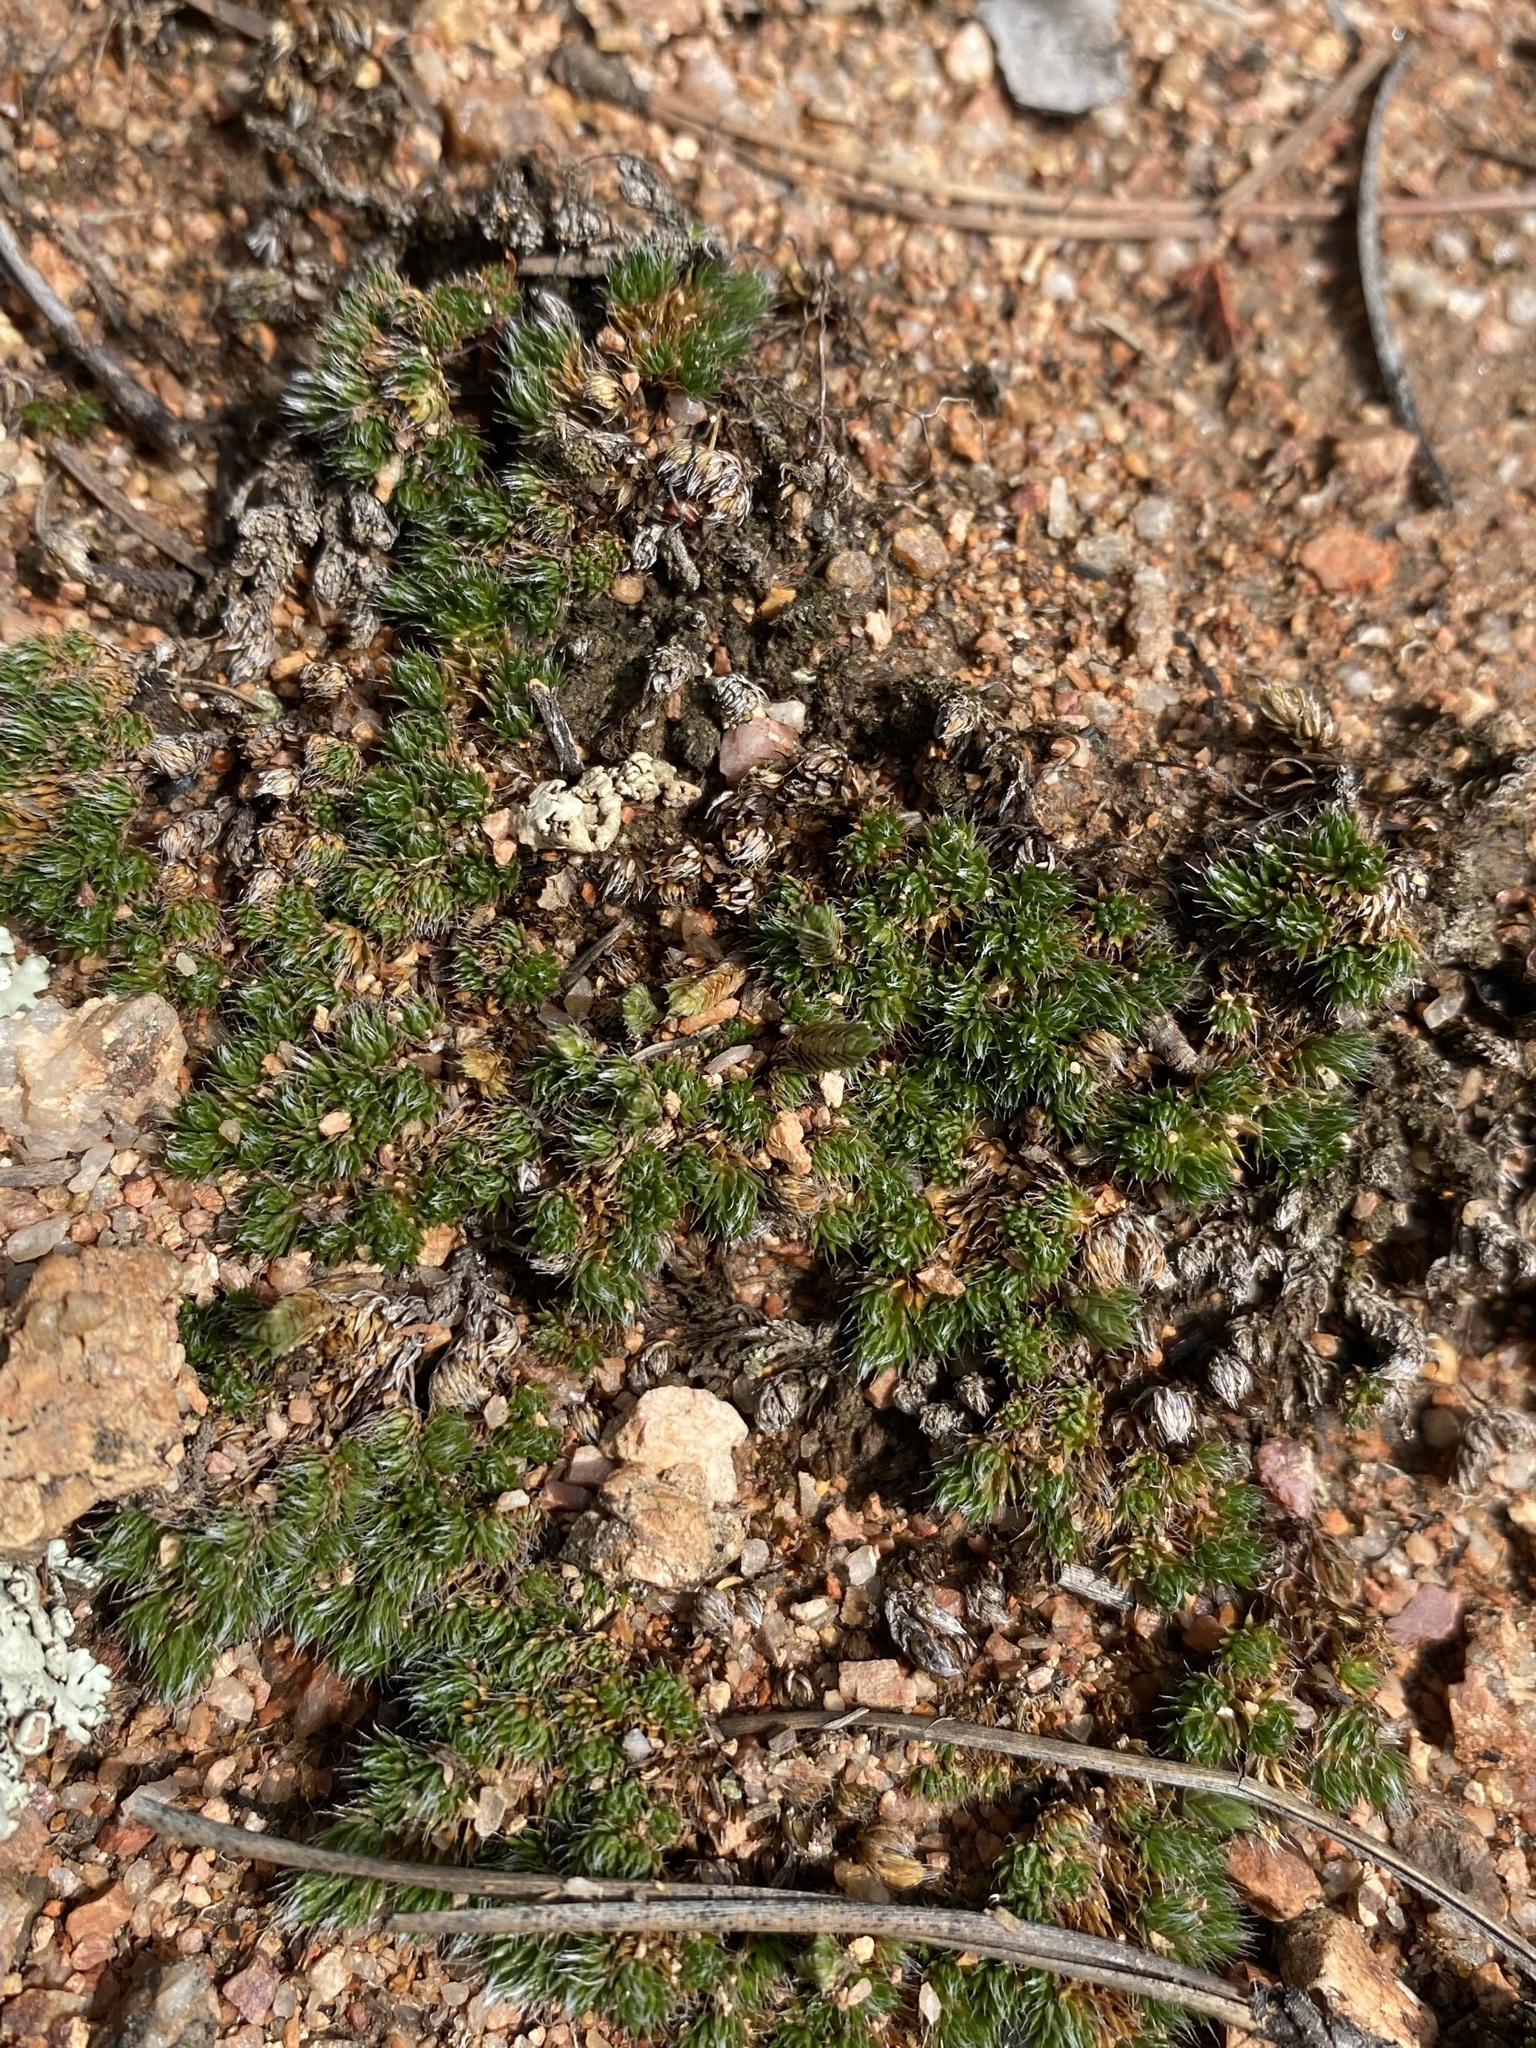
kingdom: Plantae
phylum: Tracheophyta
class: Lycopodiopsida
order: Selaginellales
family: Selaginellaceae
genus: Selaginella
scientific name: Selaginella densa
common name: Mountain spike-moss
